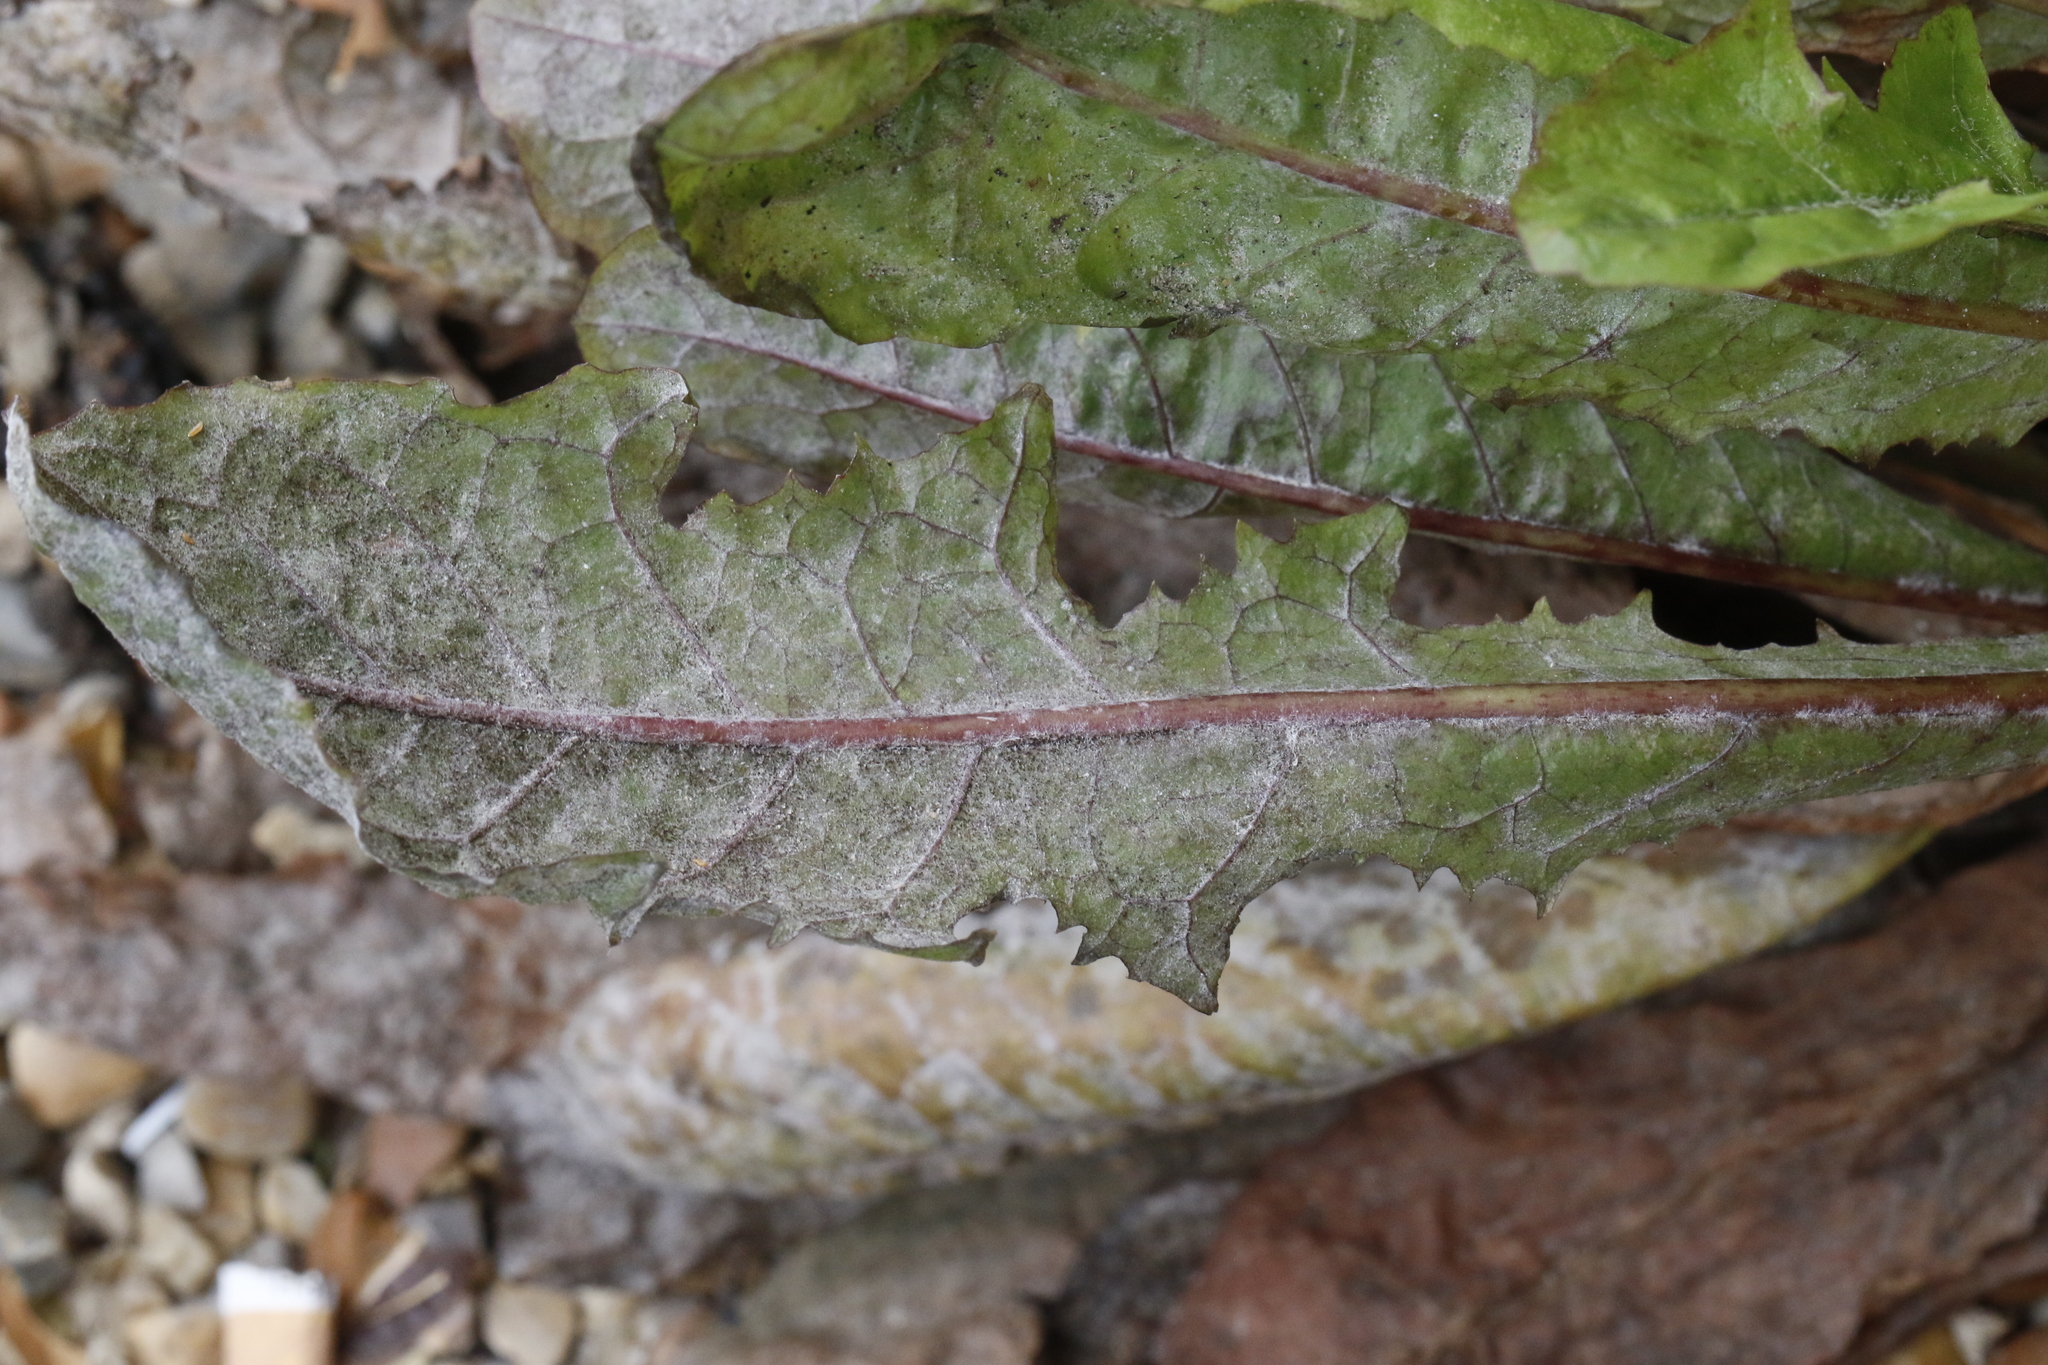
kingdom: Fungi
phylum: Ascomycota
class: Leotiomycetes
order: Helotiales
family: Erysiphaceae
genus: Podosphaera
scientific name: Podosphaera erigerontis-canadensis
